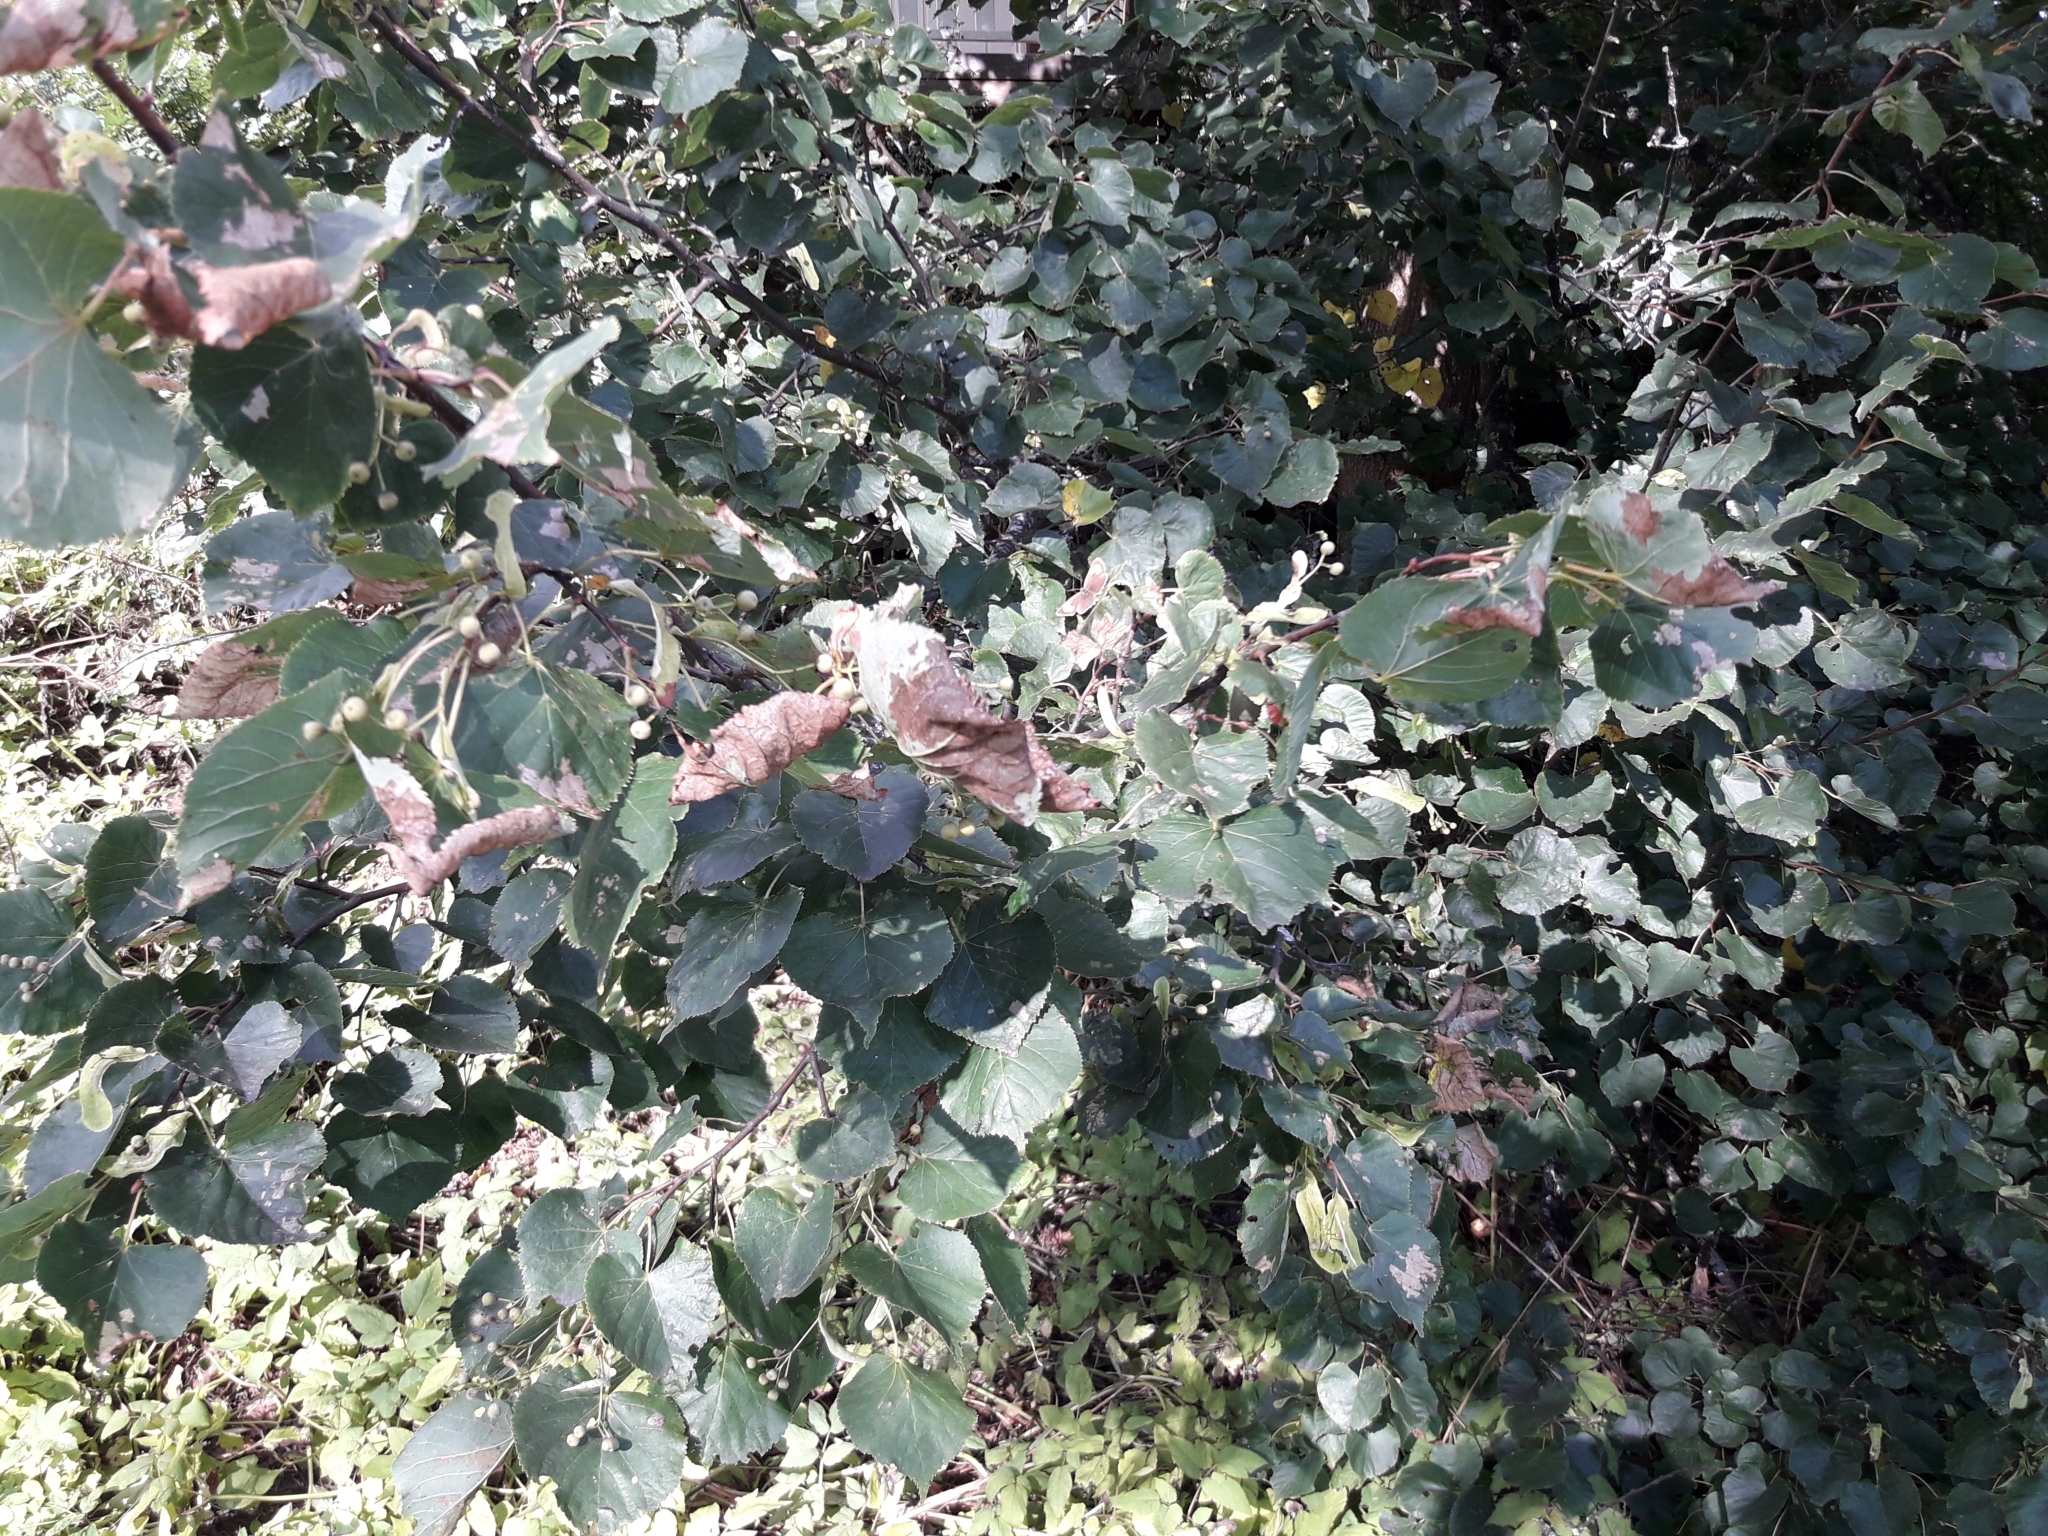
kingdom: Animalia
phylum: Arthropoda
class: Insecta
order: Lepidoptera
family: Lycaenidae
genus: Thecla
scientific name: Thecla betulae
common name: Brown hairstreak
